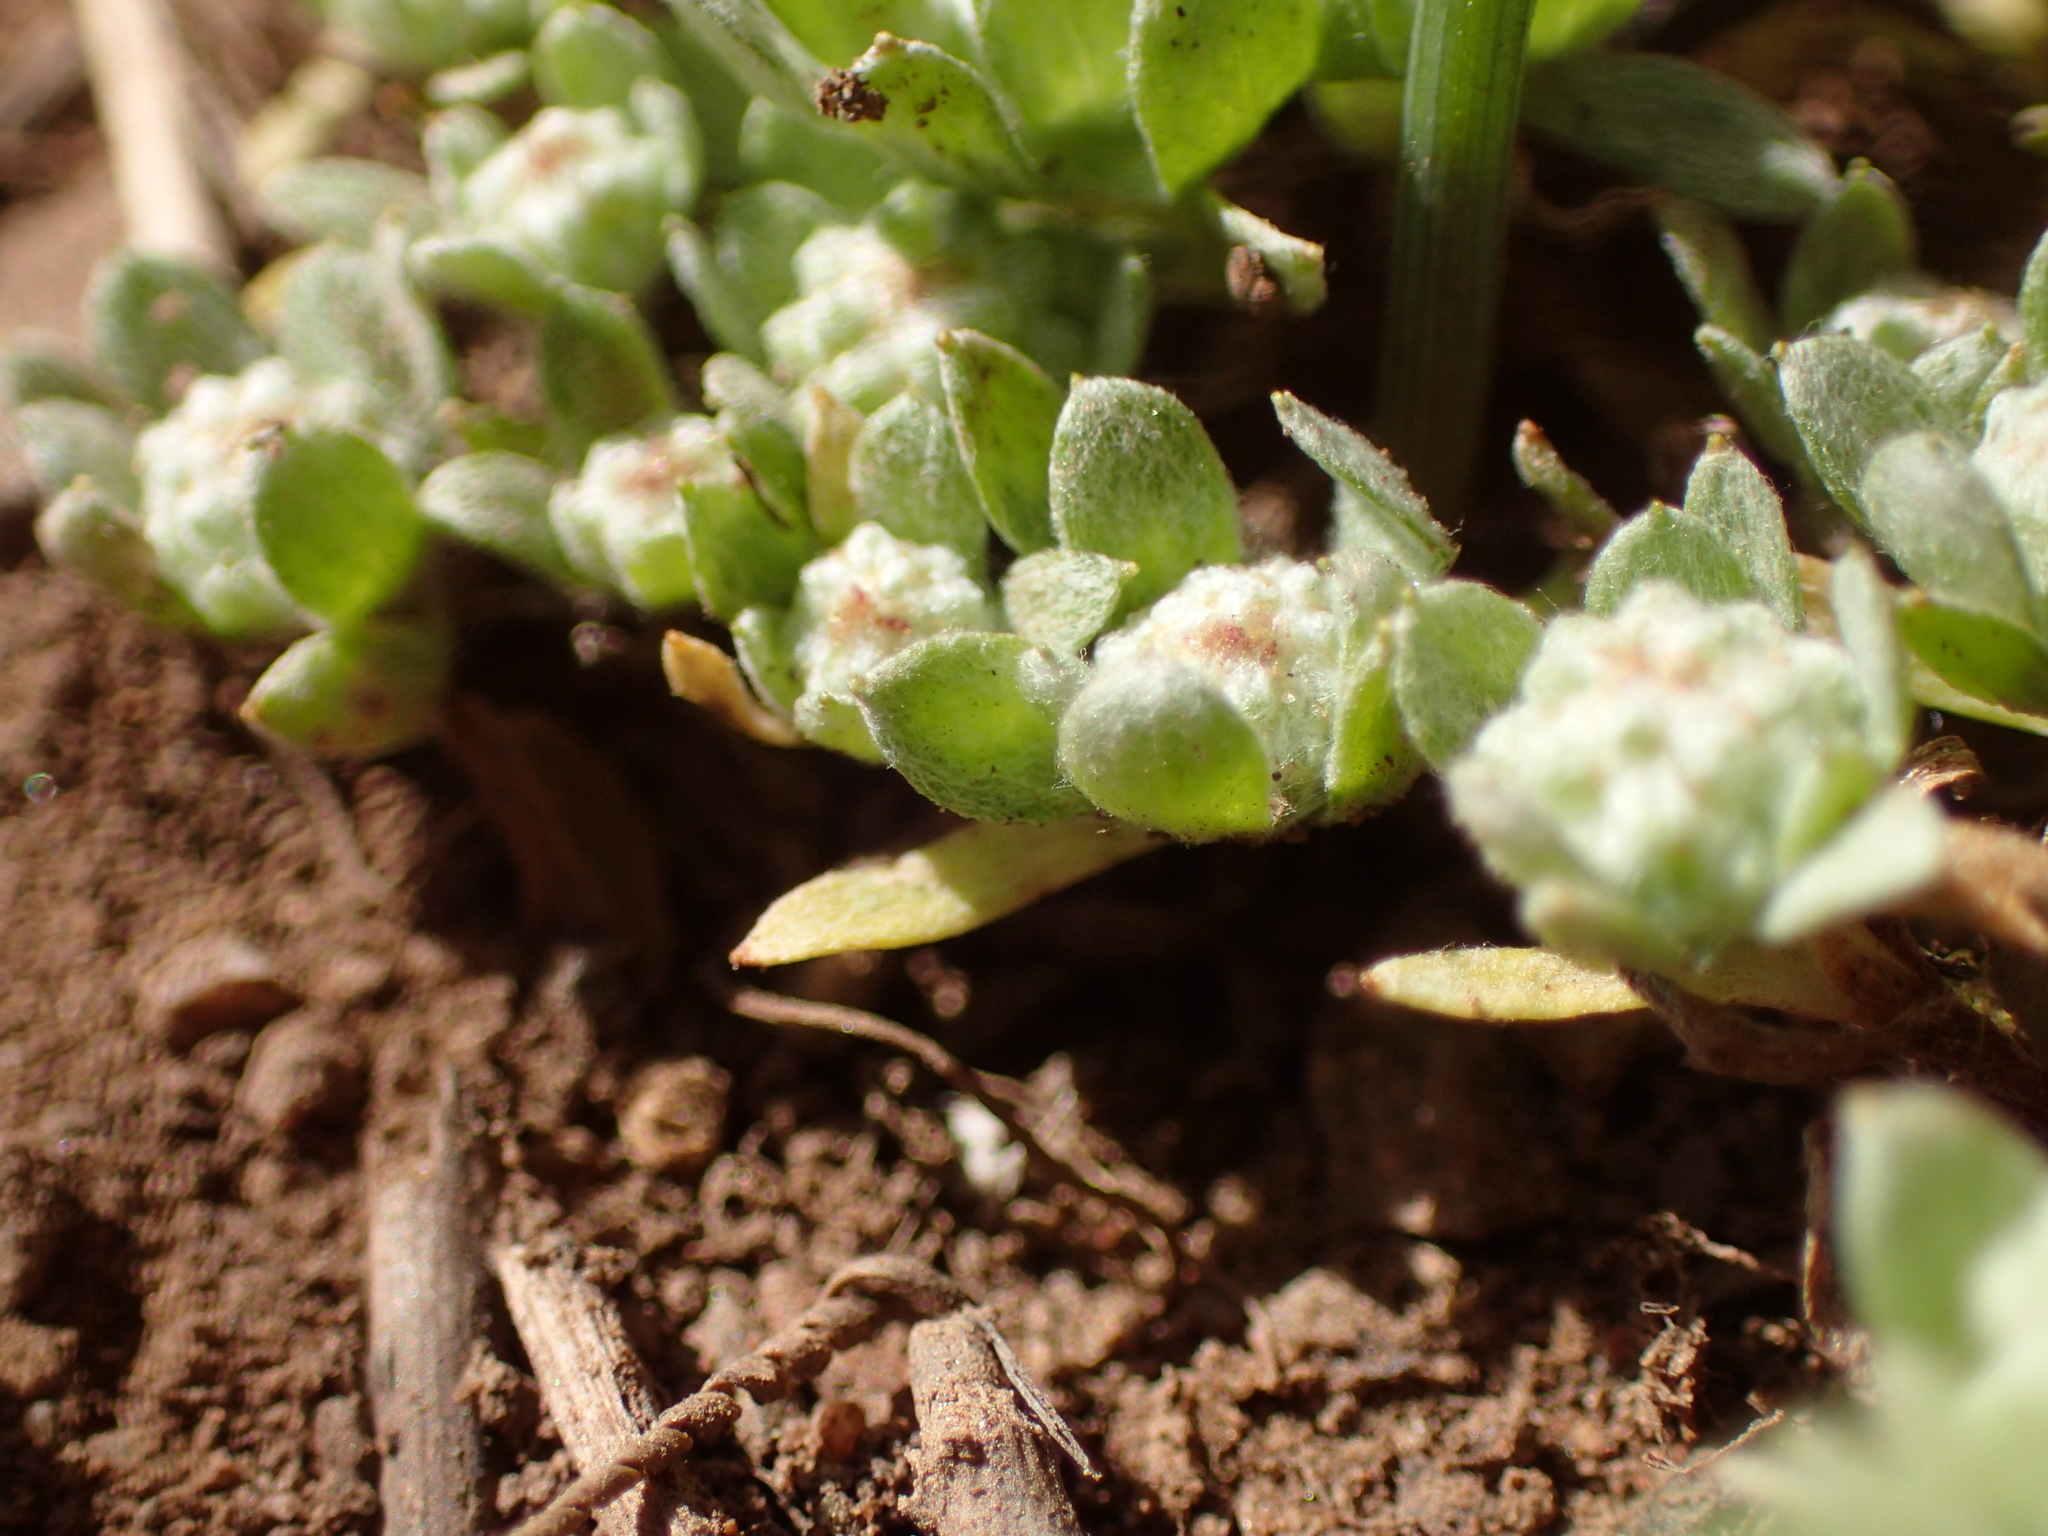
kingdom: Plantae
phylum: Tracheophyta
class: Magnoliopsida
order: Asterales
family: Asteraceae
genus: Psilocarphus
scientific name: Psilocarphus tenellus
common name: Slender woolly-marbles
